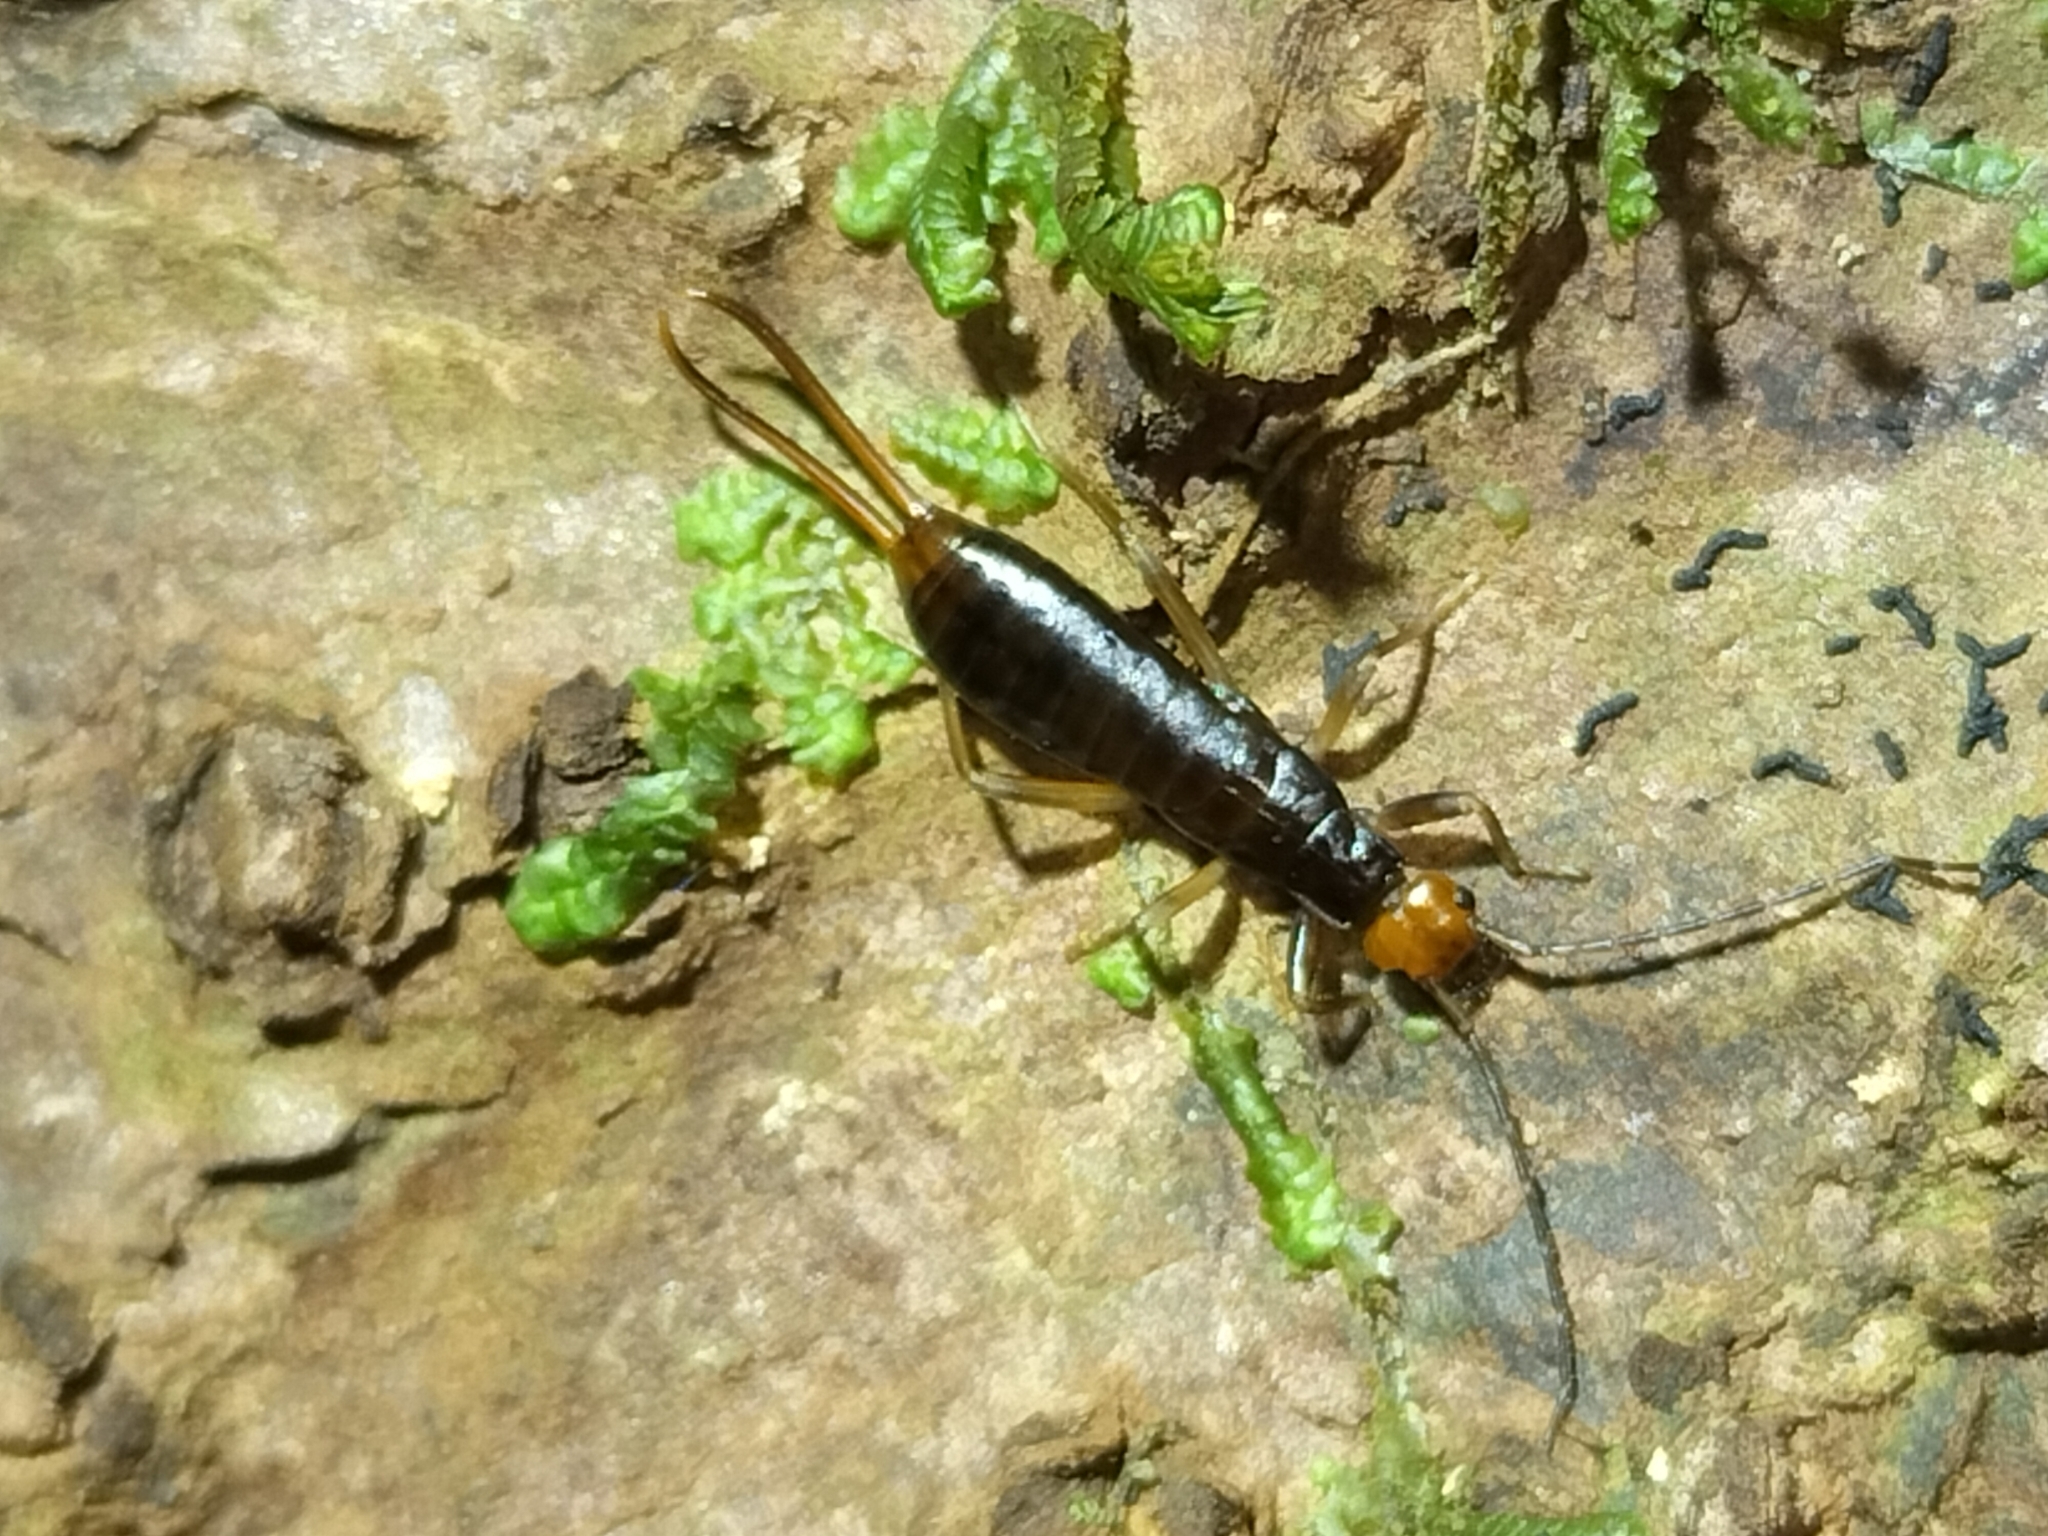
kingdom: Animalia
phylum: Arthropoda
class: Insecta
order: Dermaptera
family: Forficulidae
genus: Syntonus
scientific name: Syntonus venus
